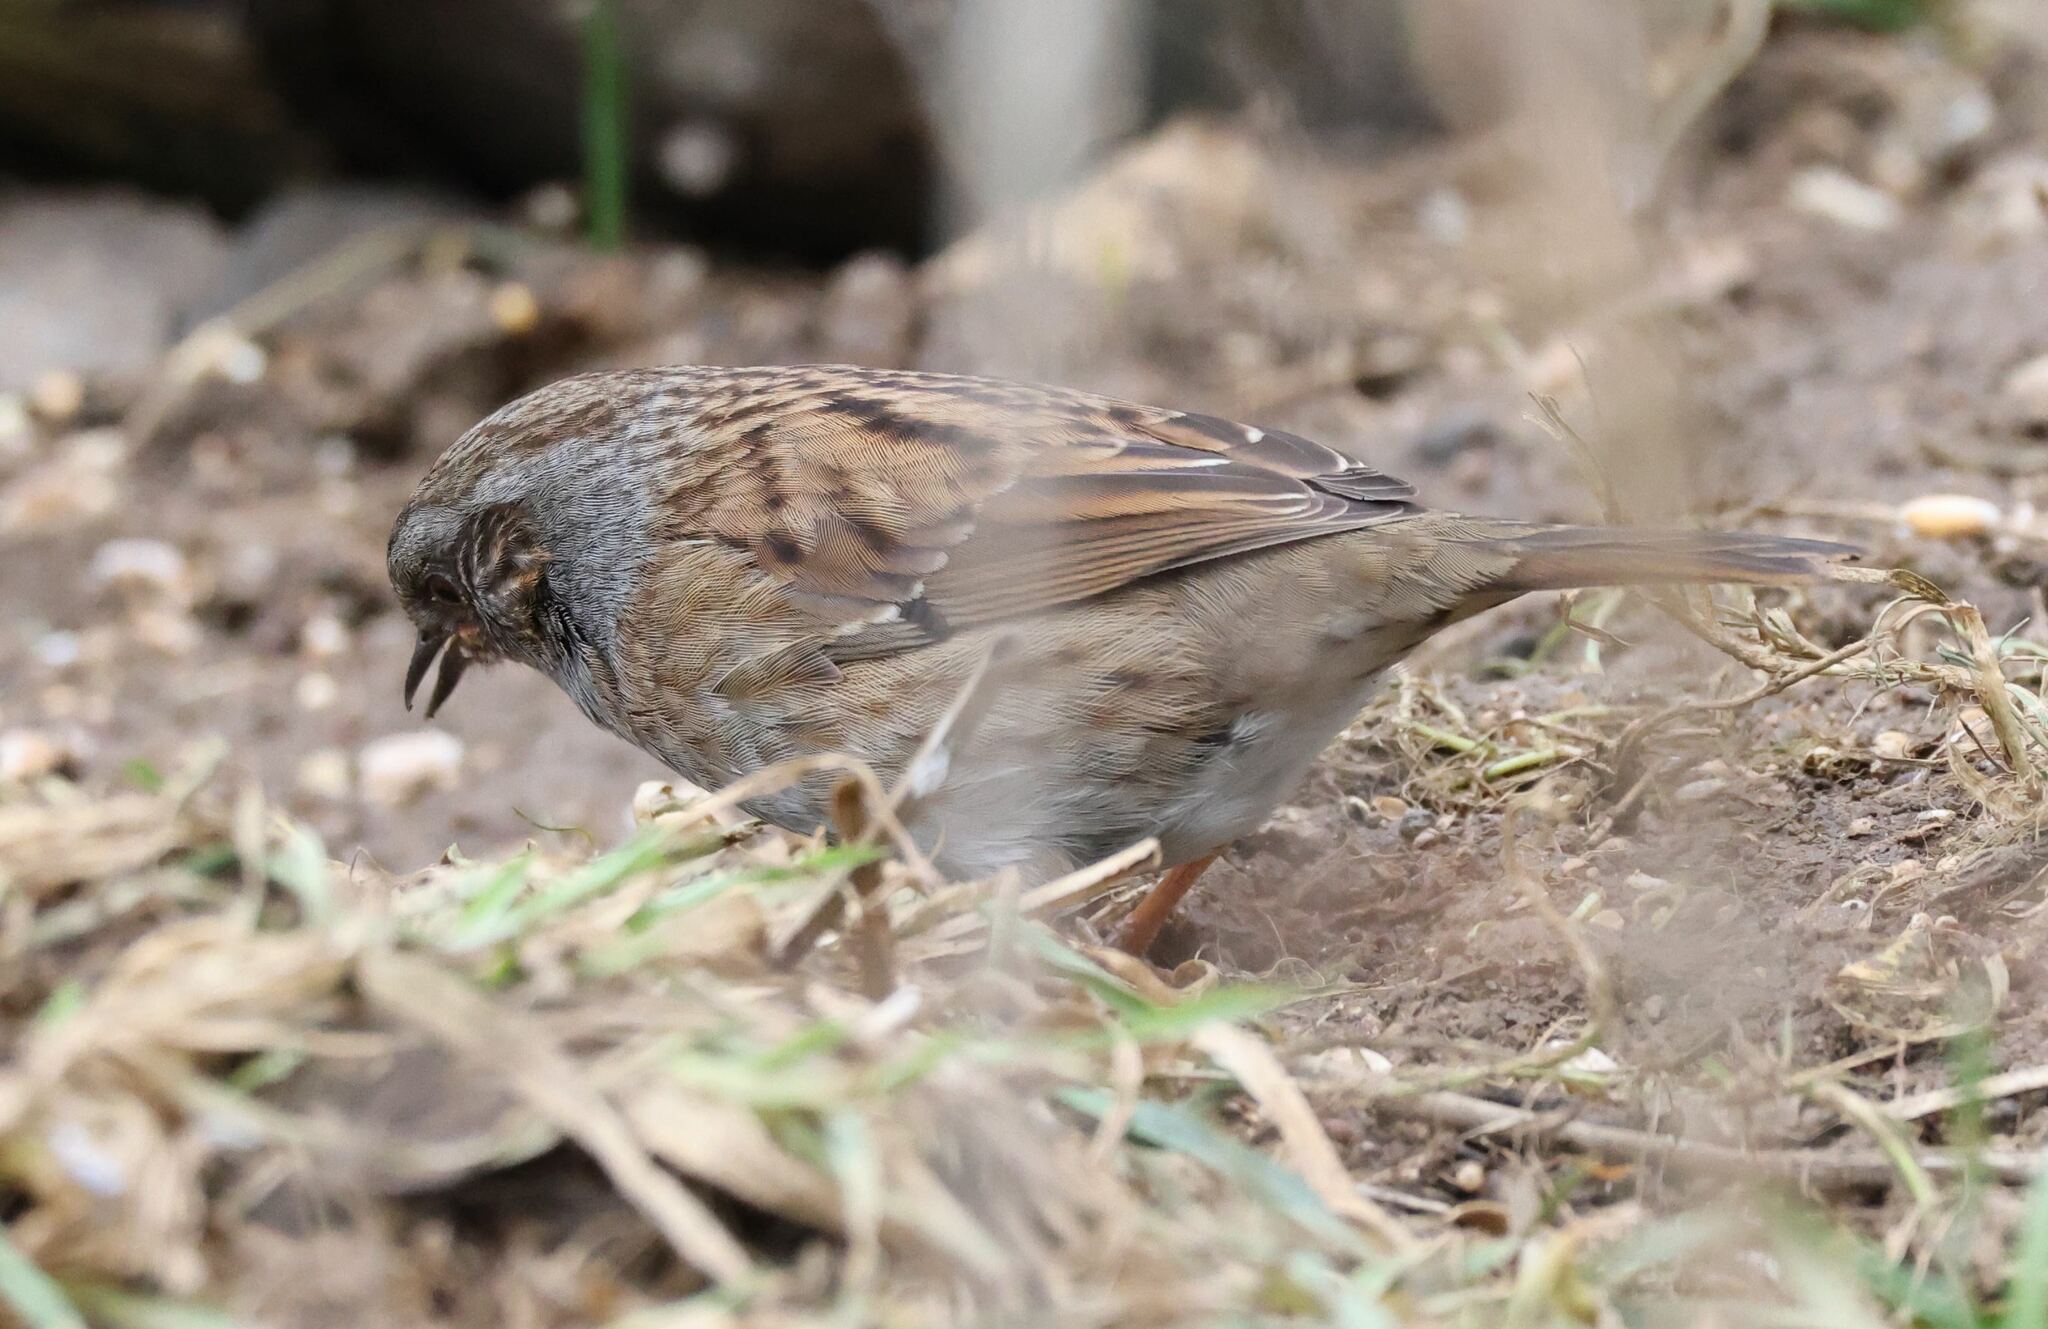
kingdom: Animalia
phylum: Chordata
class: Aves
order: Passeriformes
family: Prunellidae
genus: Prunella
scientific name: Prunella modularis
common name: Dunnock
